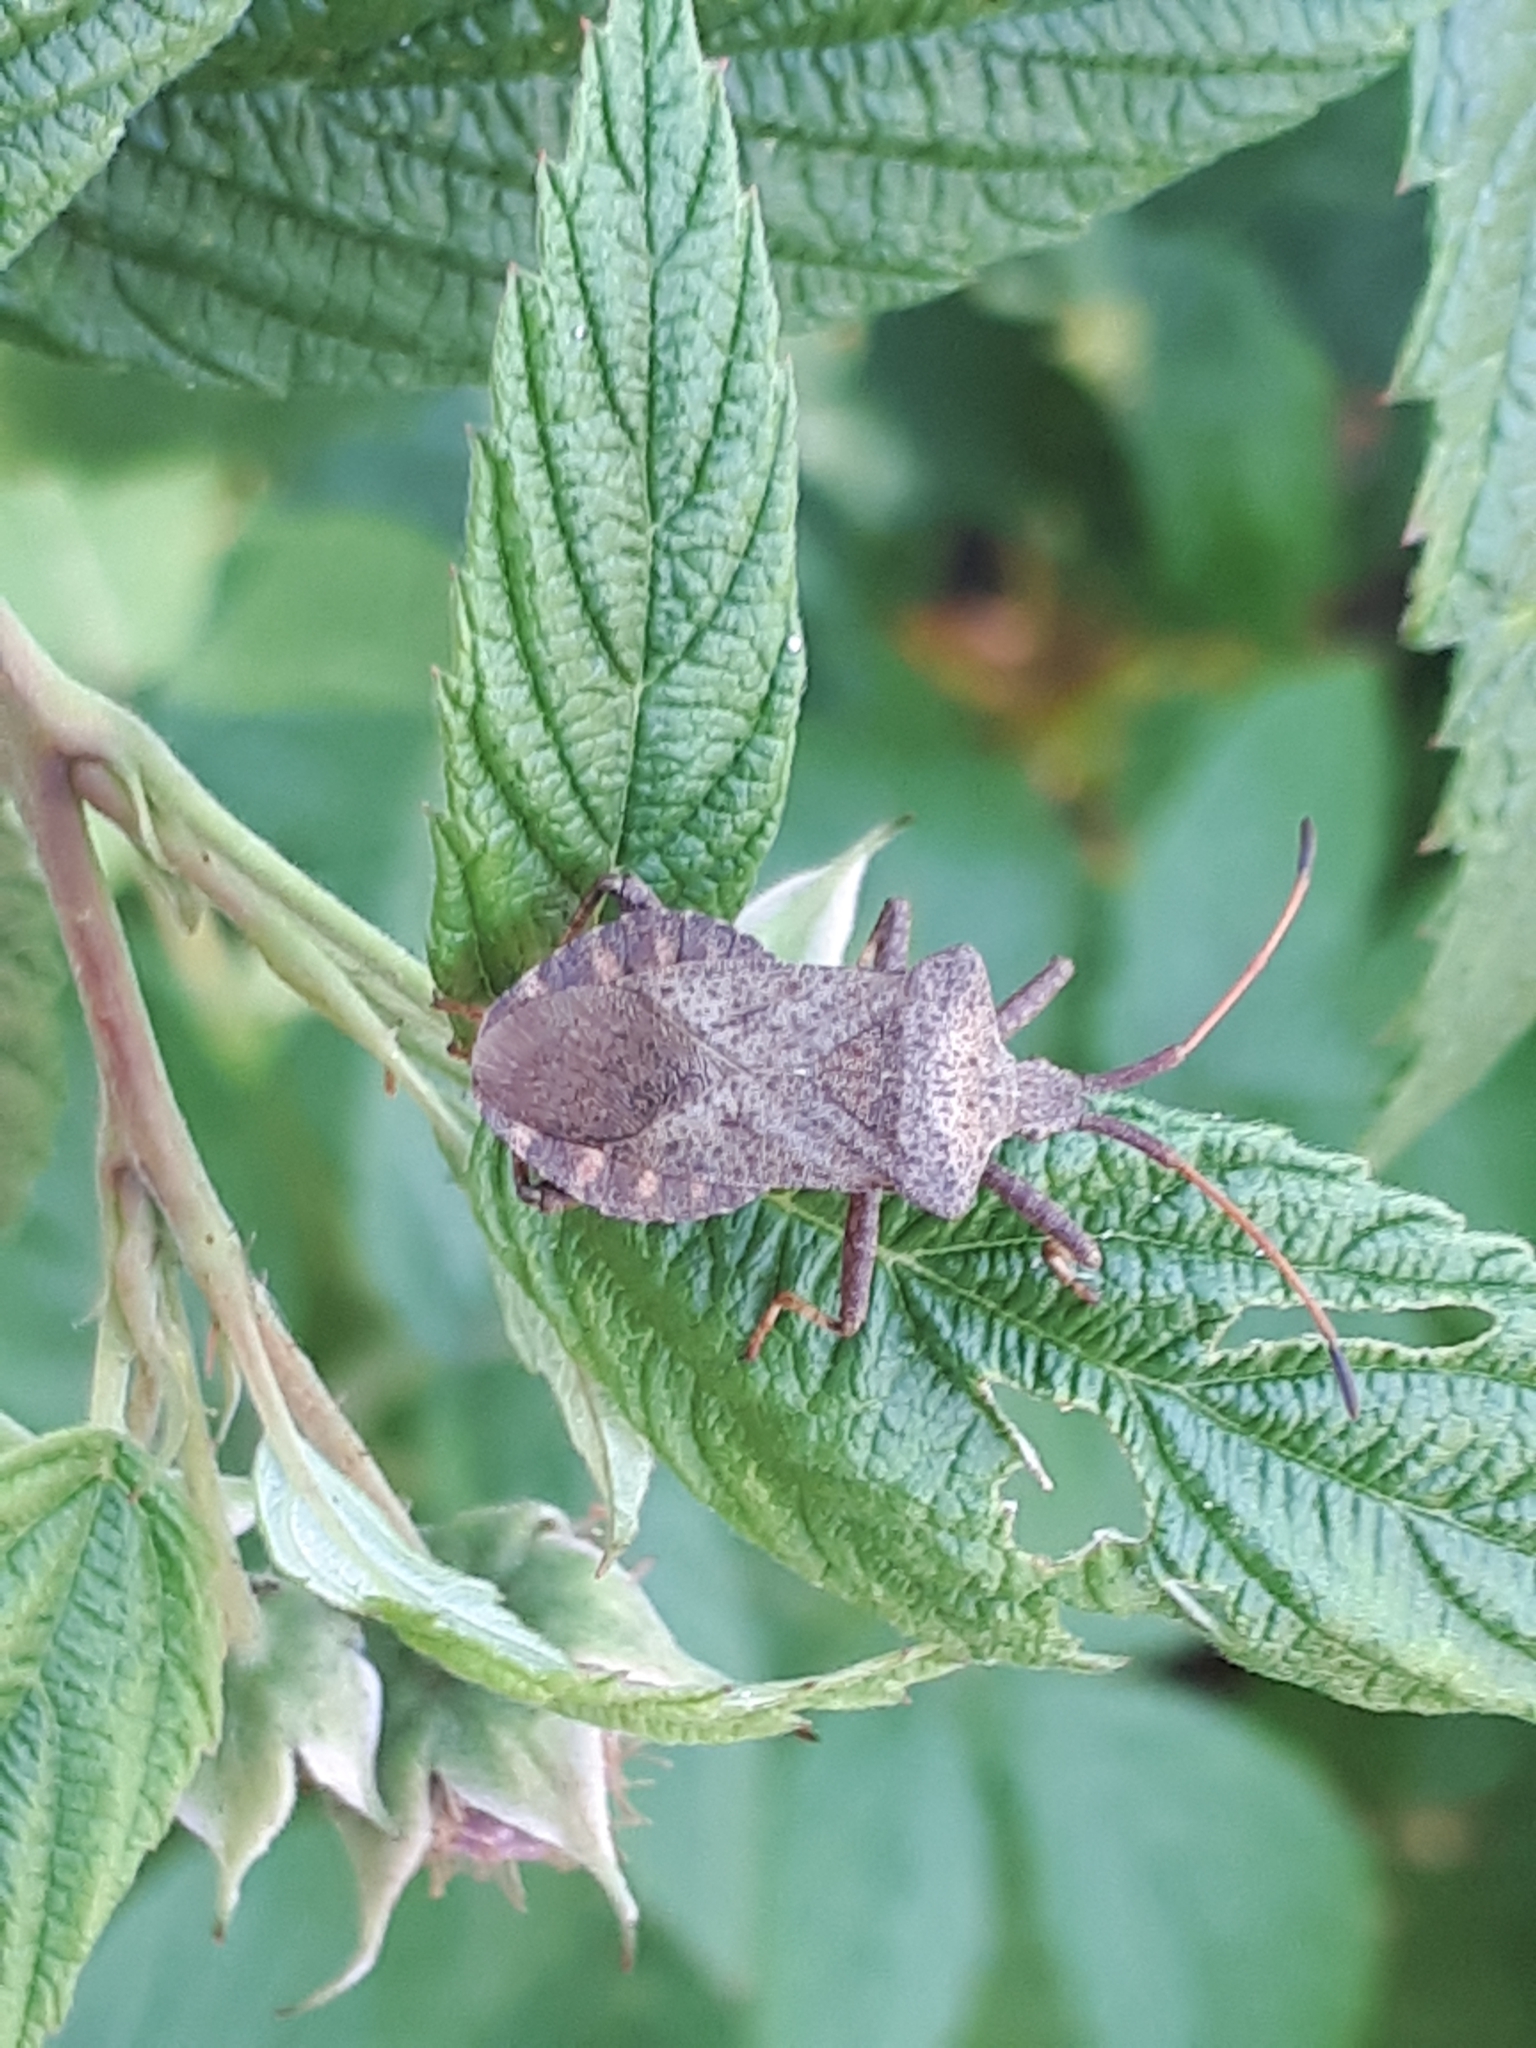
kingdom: Animalia
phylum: Arthropoda
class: Insecta
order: Hemiptera
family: Coreidae
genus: Coreus
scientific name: Coreus marginatus
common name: Dock bug
